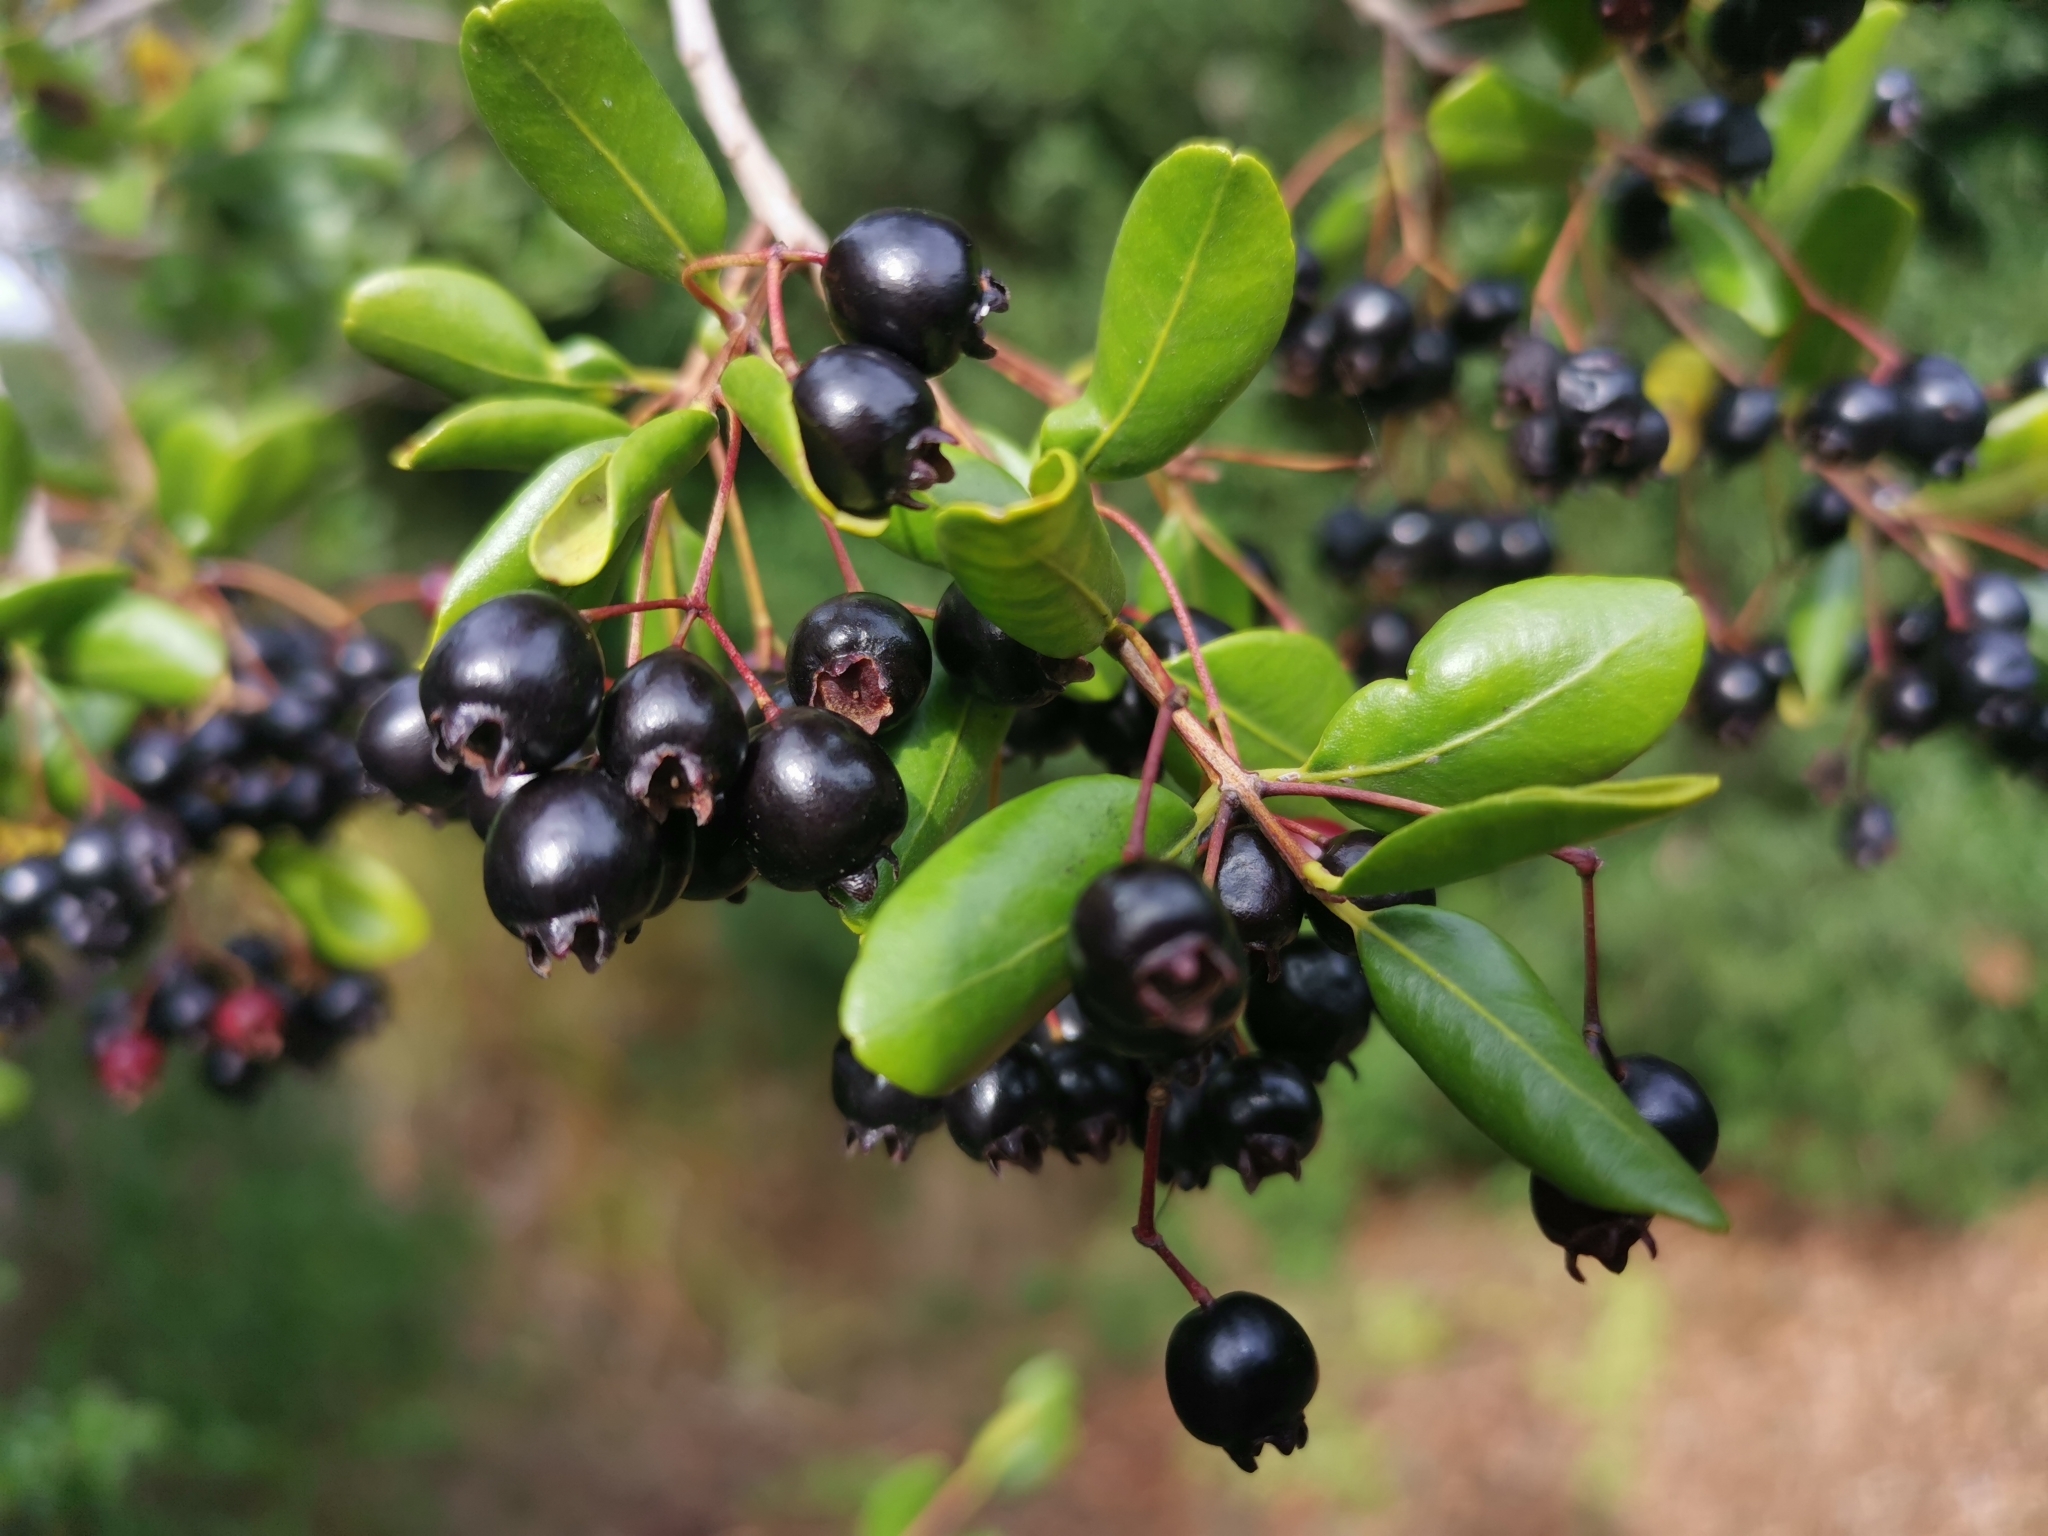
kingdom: Plantae
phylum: Tracheophyta
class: Magnoliopsida
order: Myrtales
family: Myrtaceae
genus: Blepharocalyx
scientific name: Blepharocalyx cruckshanksii
